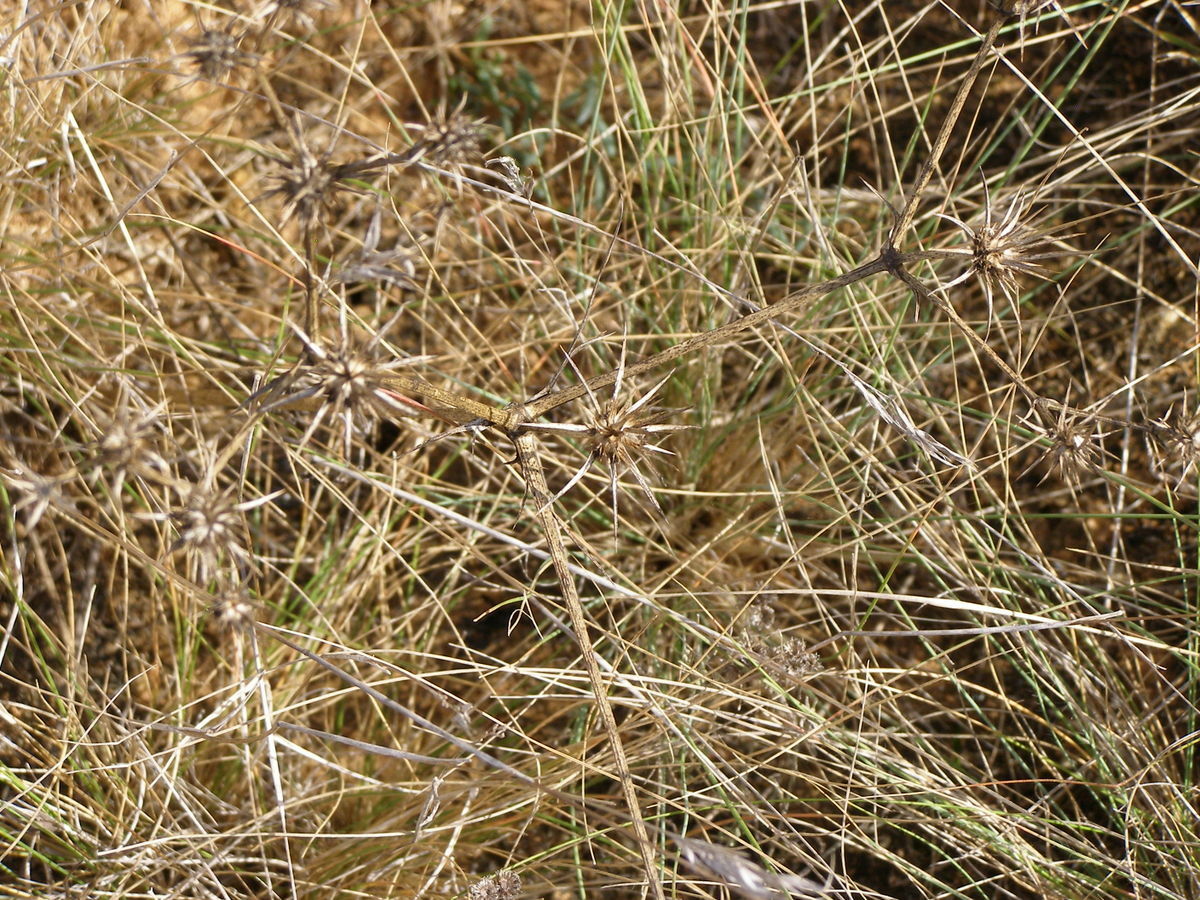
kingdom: Plantae
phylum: Tracheophyta
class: Magnoliopsida
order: Apiales
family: Apiaceae
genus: Eryngium
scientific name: Eryngium ovinum
